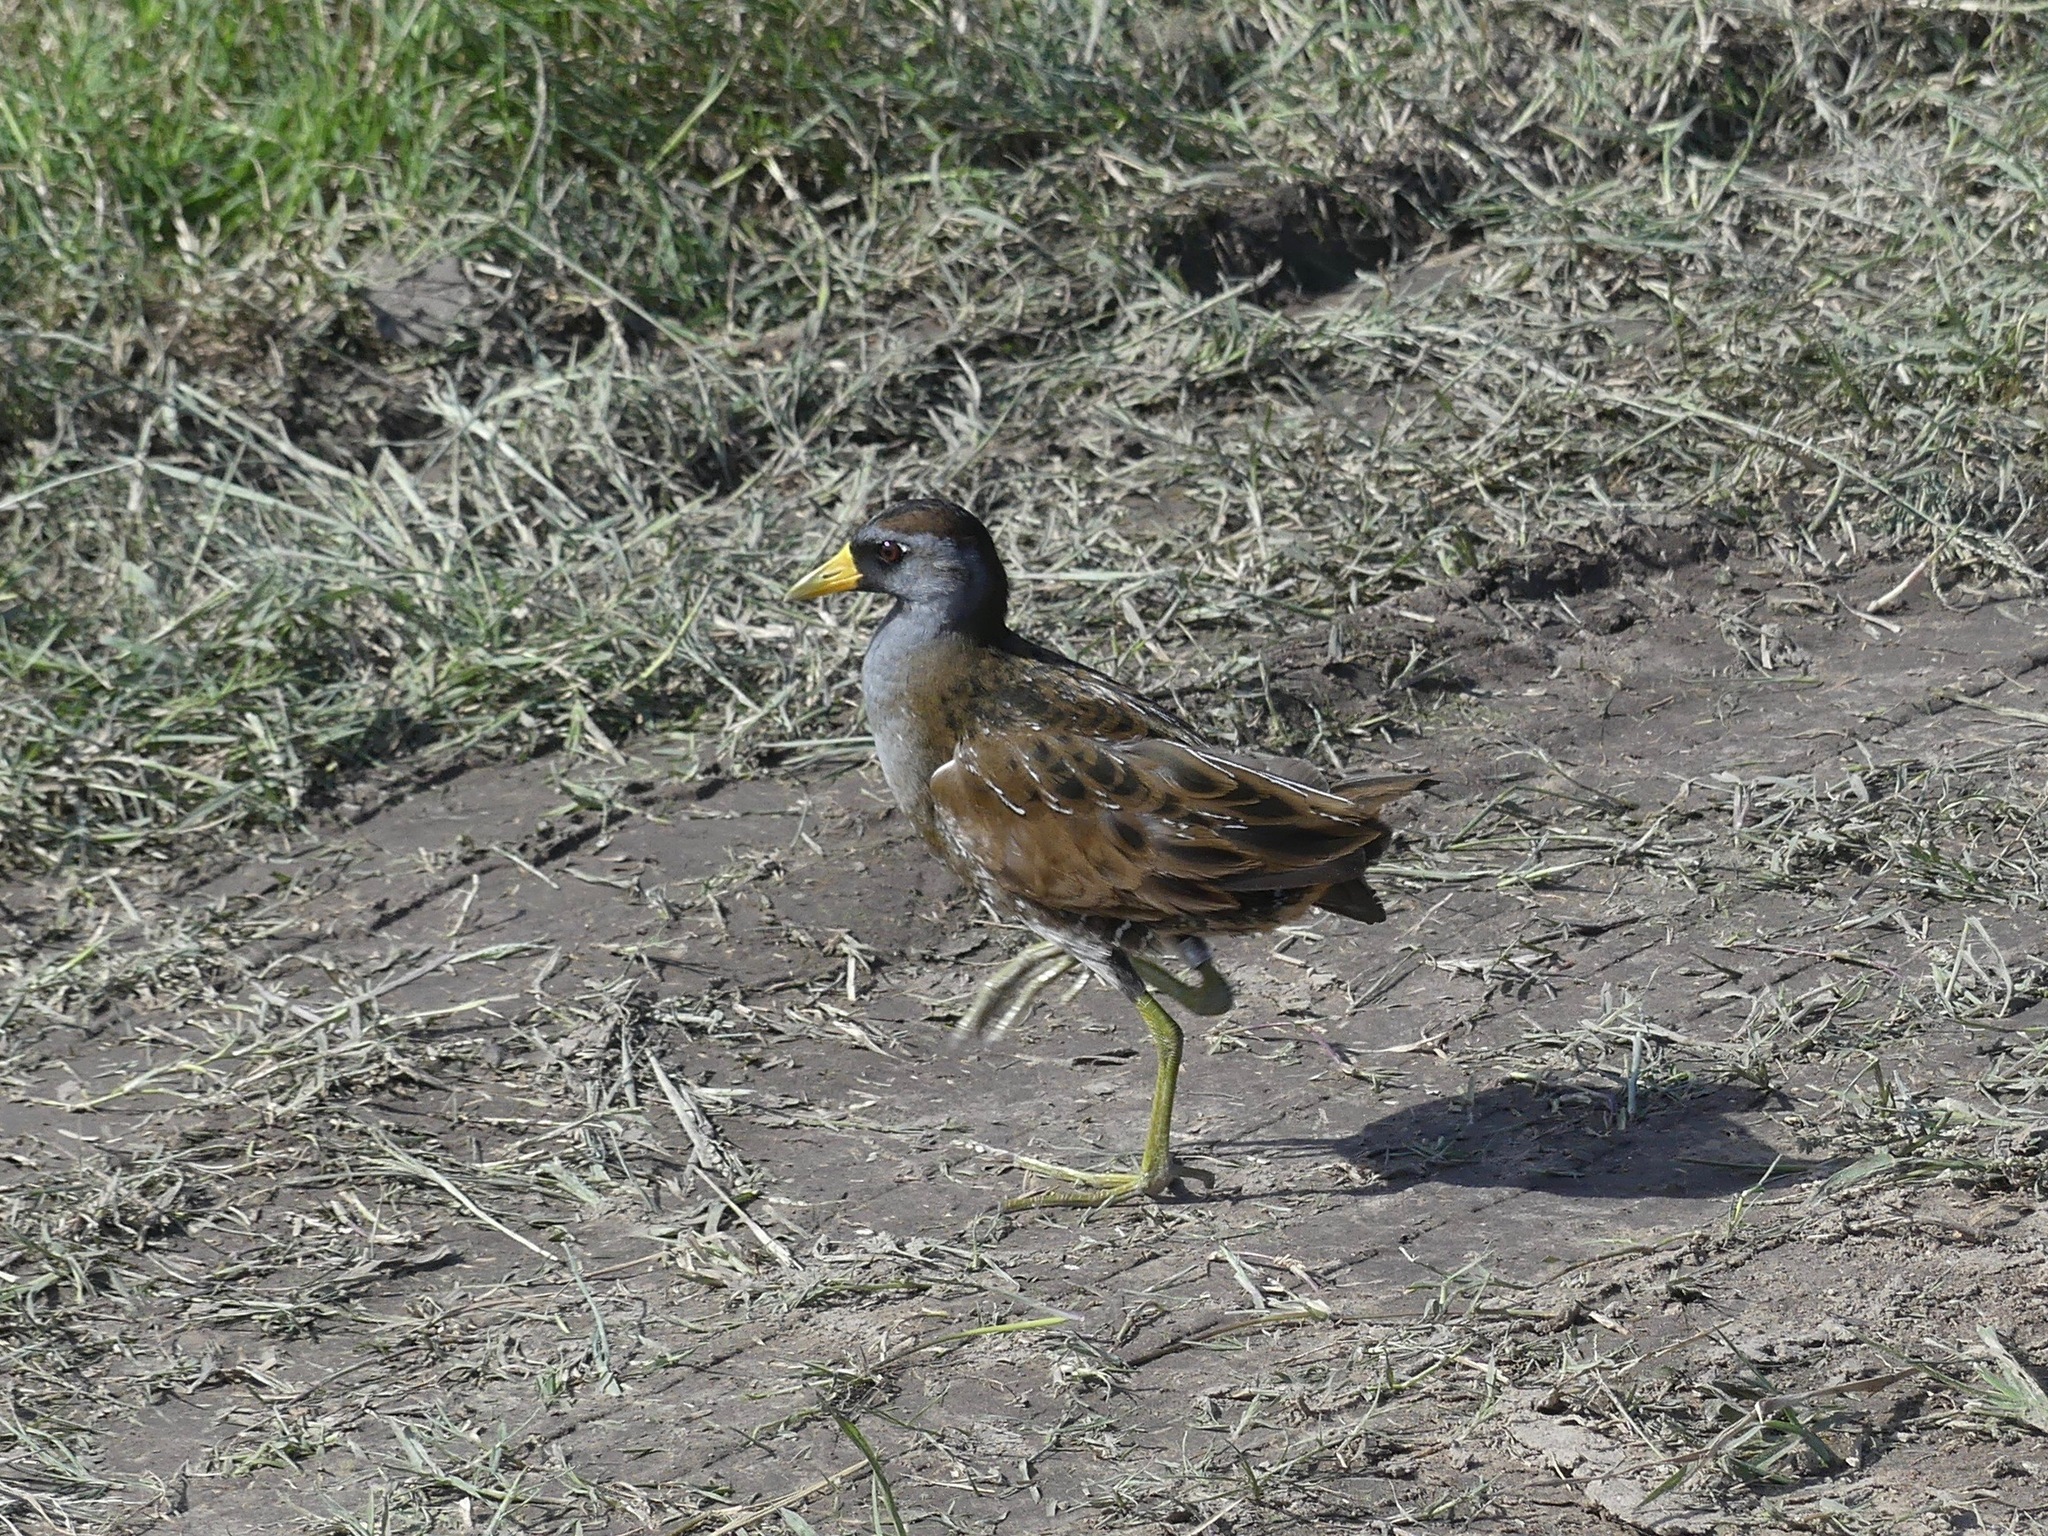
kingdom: Animalia
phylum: Chordata
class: Aves
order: Gruiformes
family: Rallidae
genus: Porzana
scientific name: Porzana carolina
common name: Sora
